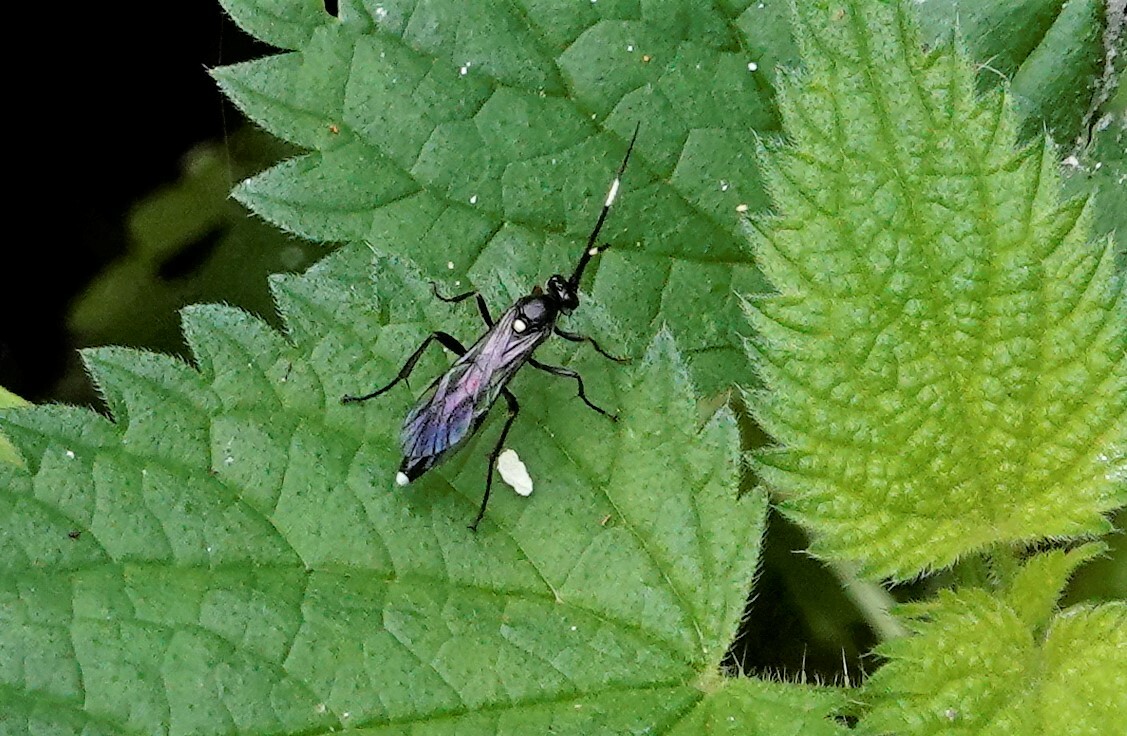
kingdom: Animalia
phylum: Arthropoda
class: Insecta
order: Hymenoptera
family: Ichneumonidae
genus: Vulgichneumon
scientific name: Vulgichneumon brevicinctor
